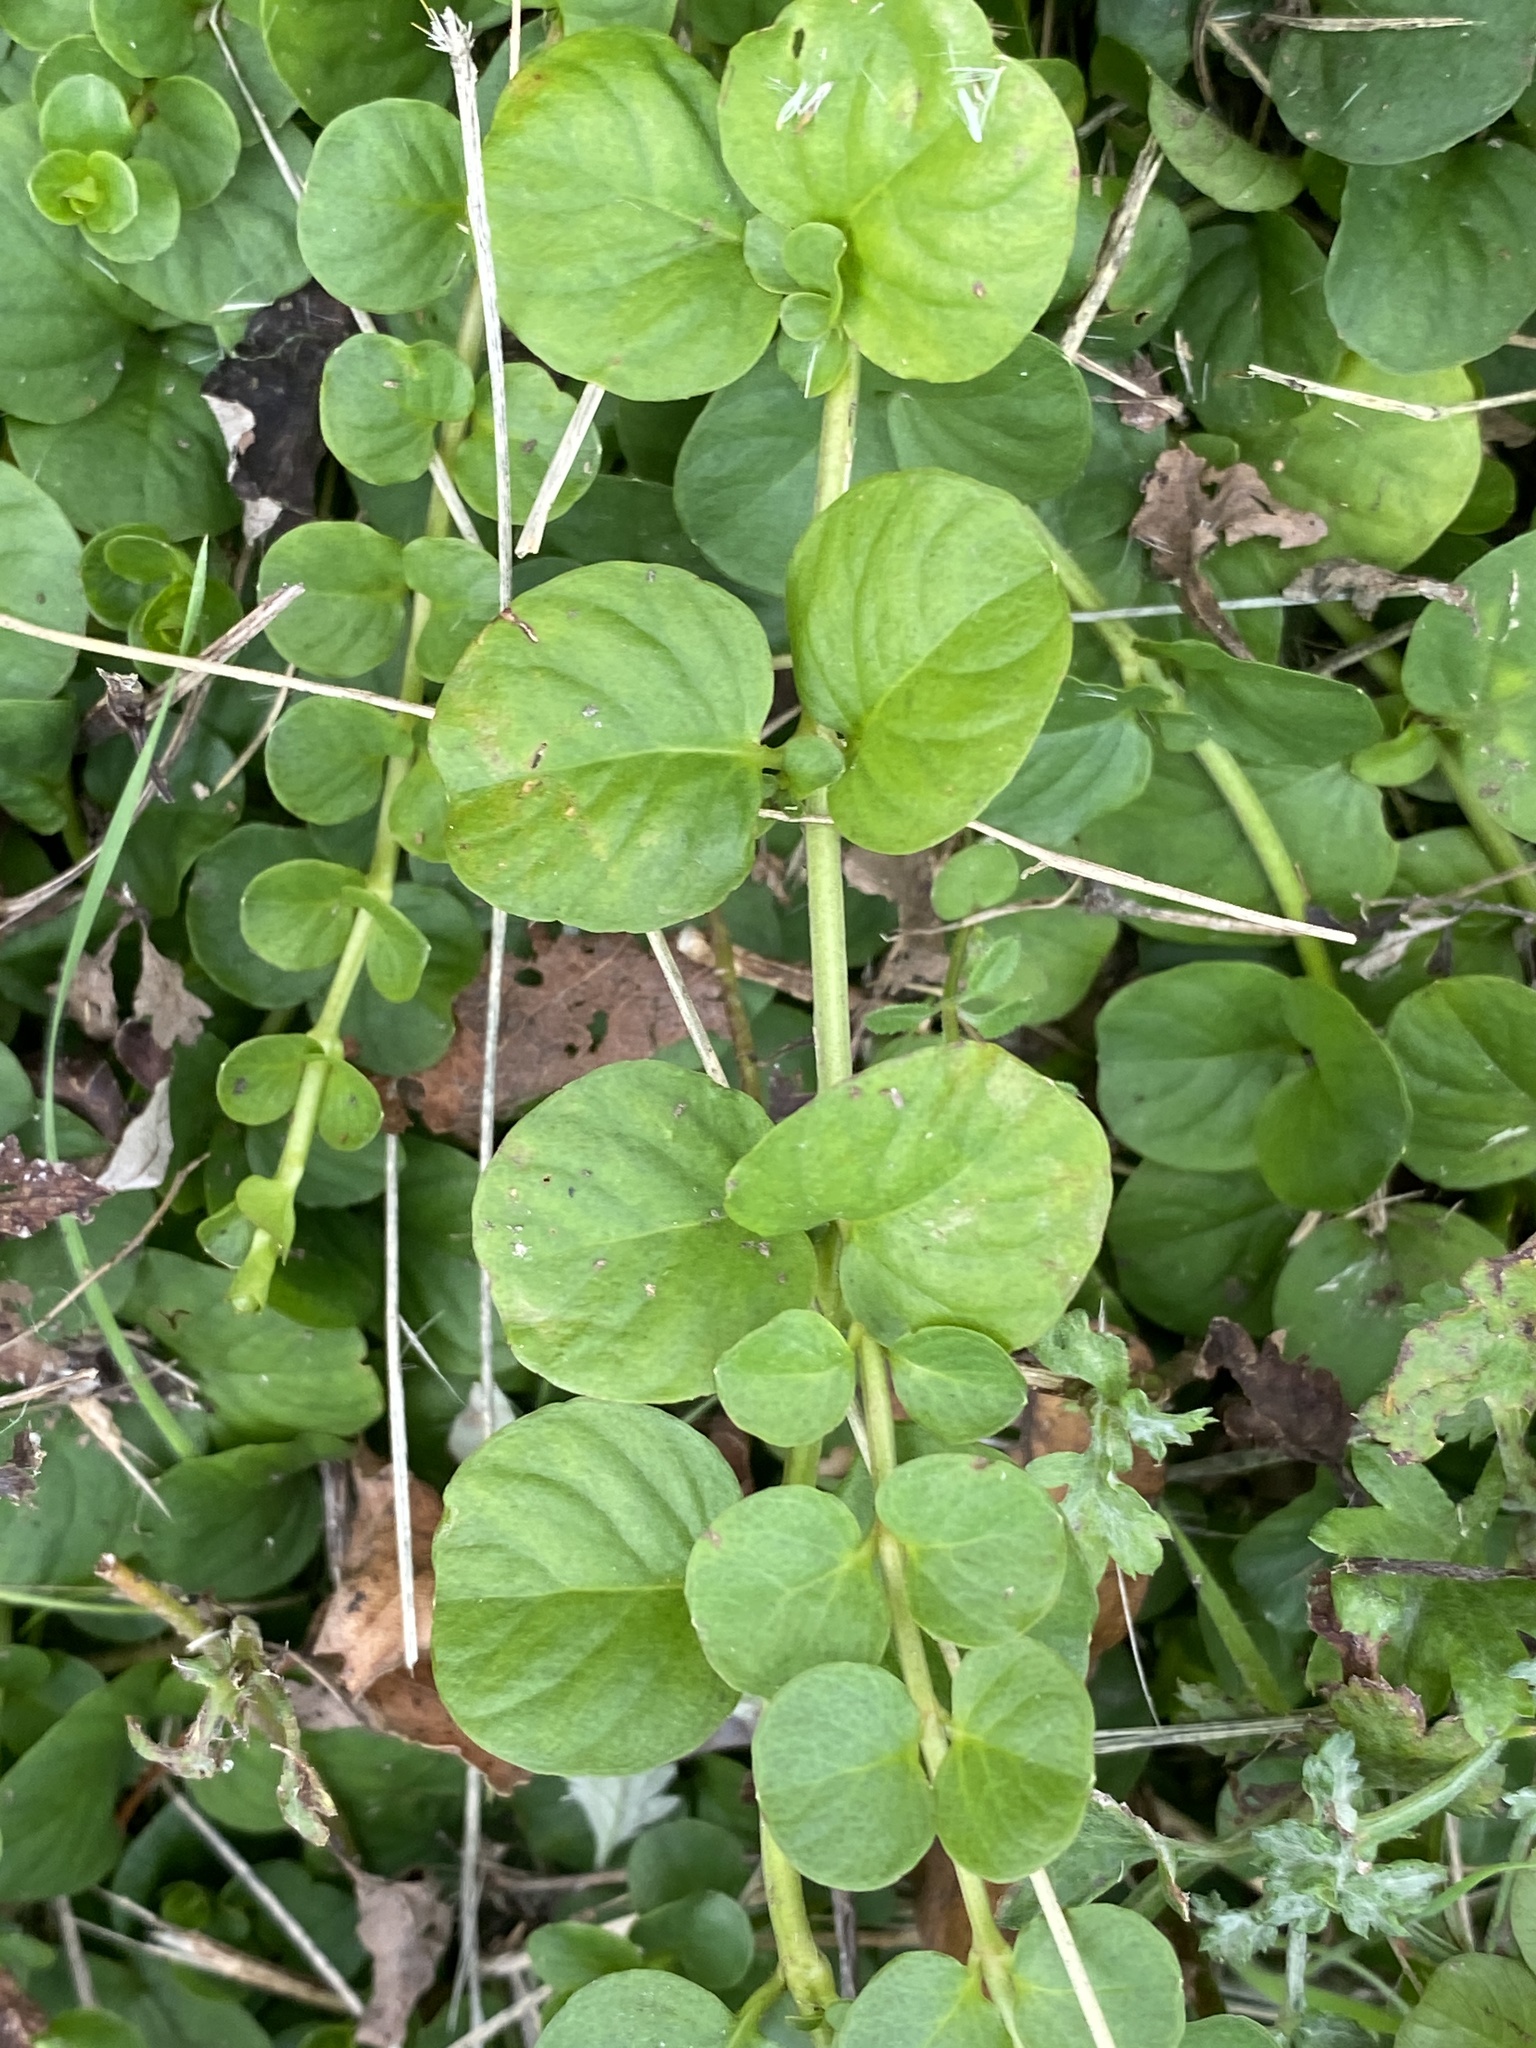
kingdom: Plantae
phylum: Tracheophyta
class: Magnoliopsida
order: Ericales
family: Primulaceae
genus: Lysimachia
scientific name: Lysimachia nummularia
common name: Moneywort
